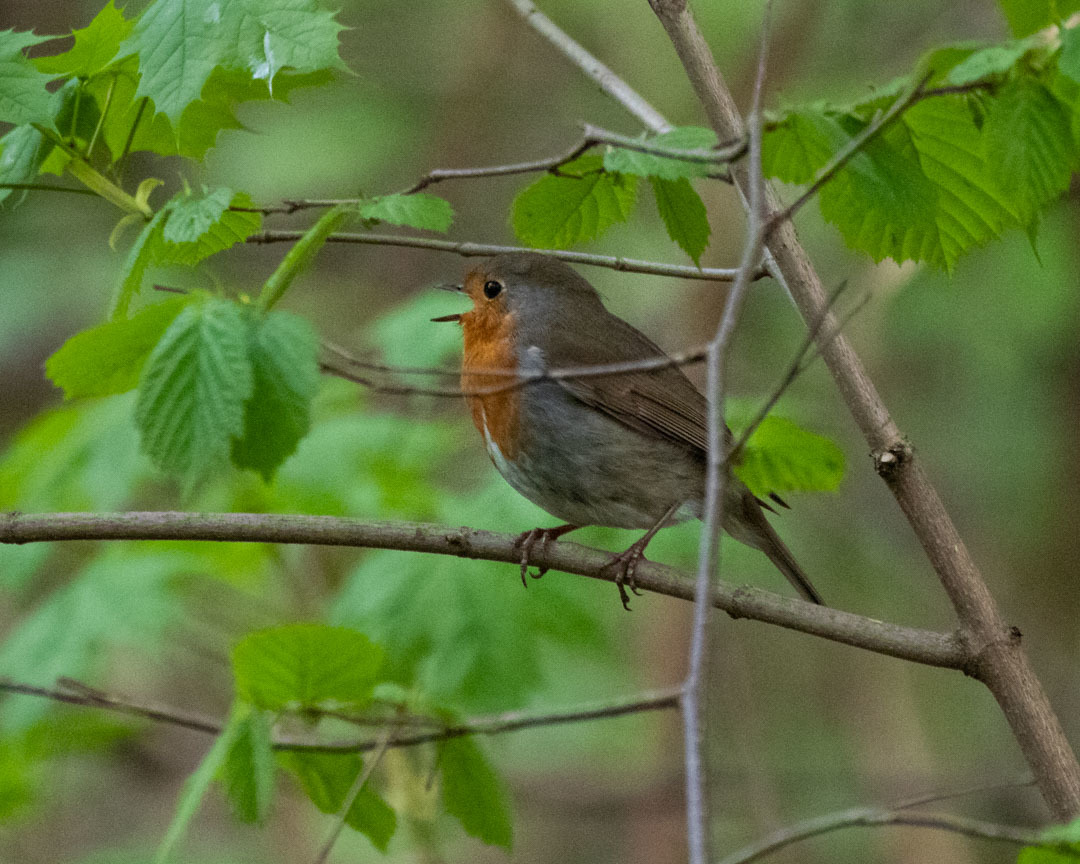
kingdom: Animalia
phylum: Chordata
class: Aves
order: Passeriformes
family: Muscicapidae
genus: Erithacus
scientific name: Erithacus rubecula
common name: European robin
